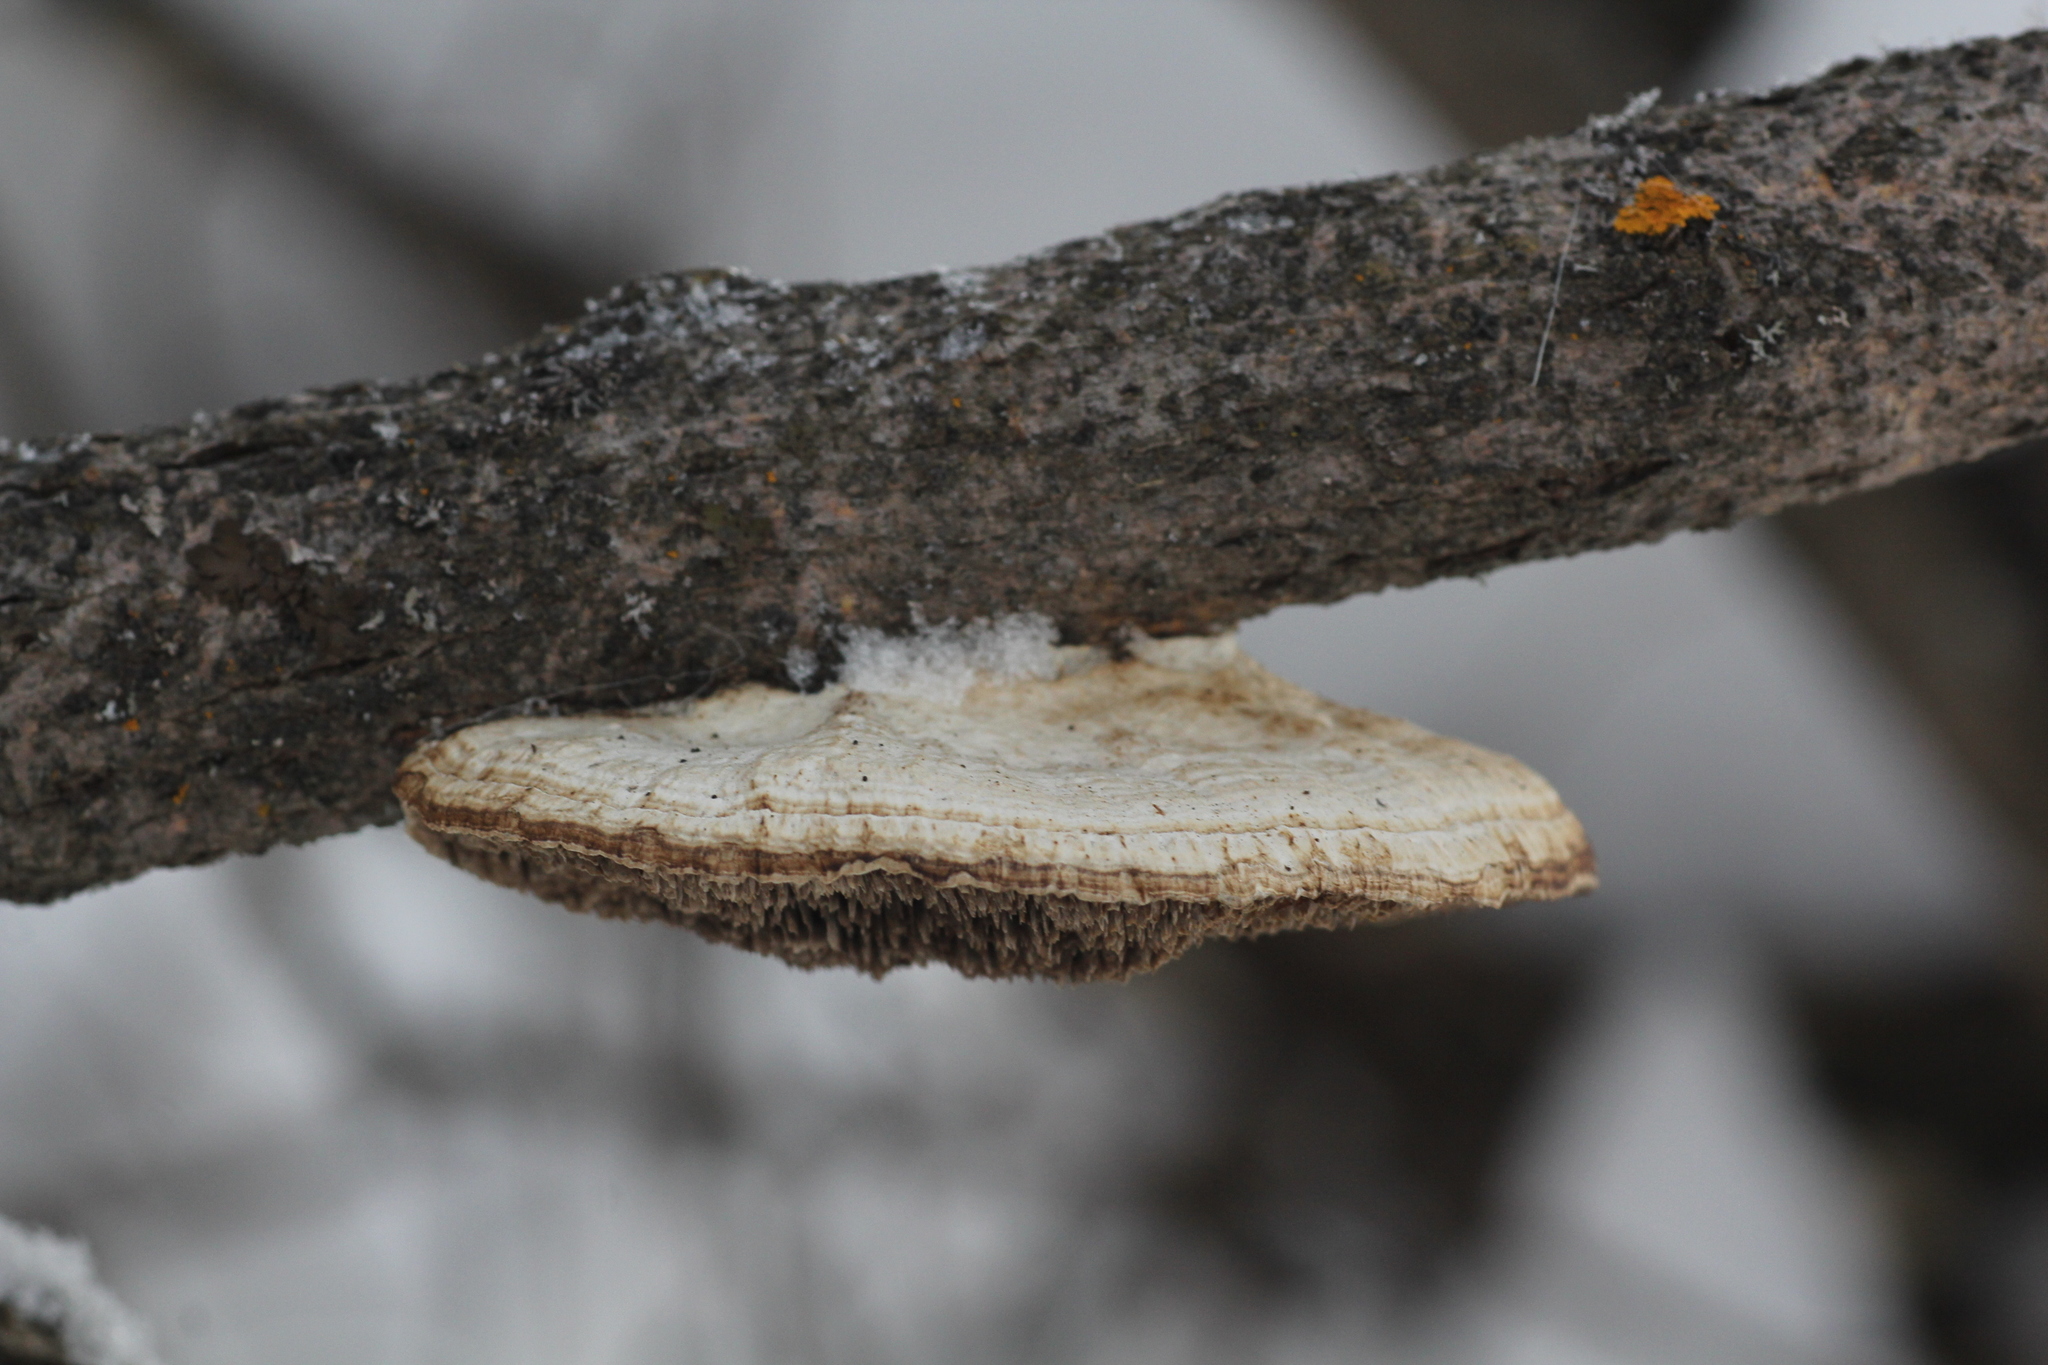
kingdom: Fungi
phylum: Basidiomycota
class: Agaricomycetes
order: Polyporales
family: Polyporaceae
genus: Daedaleopsis
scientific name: Daedaleopsis confragosa
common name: Blushing bracket
